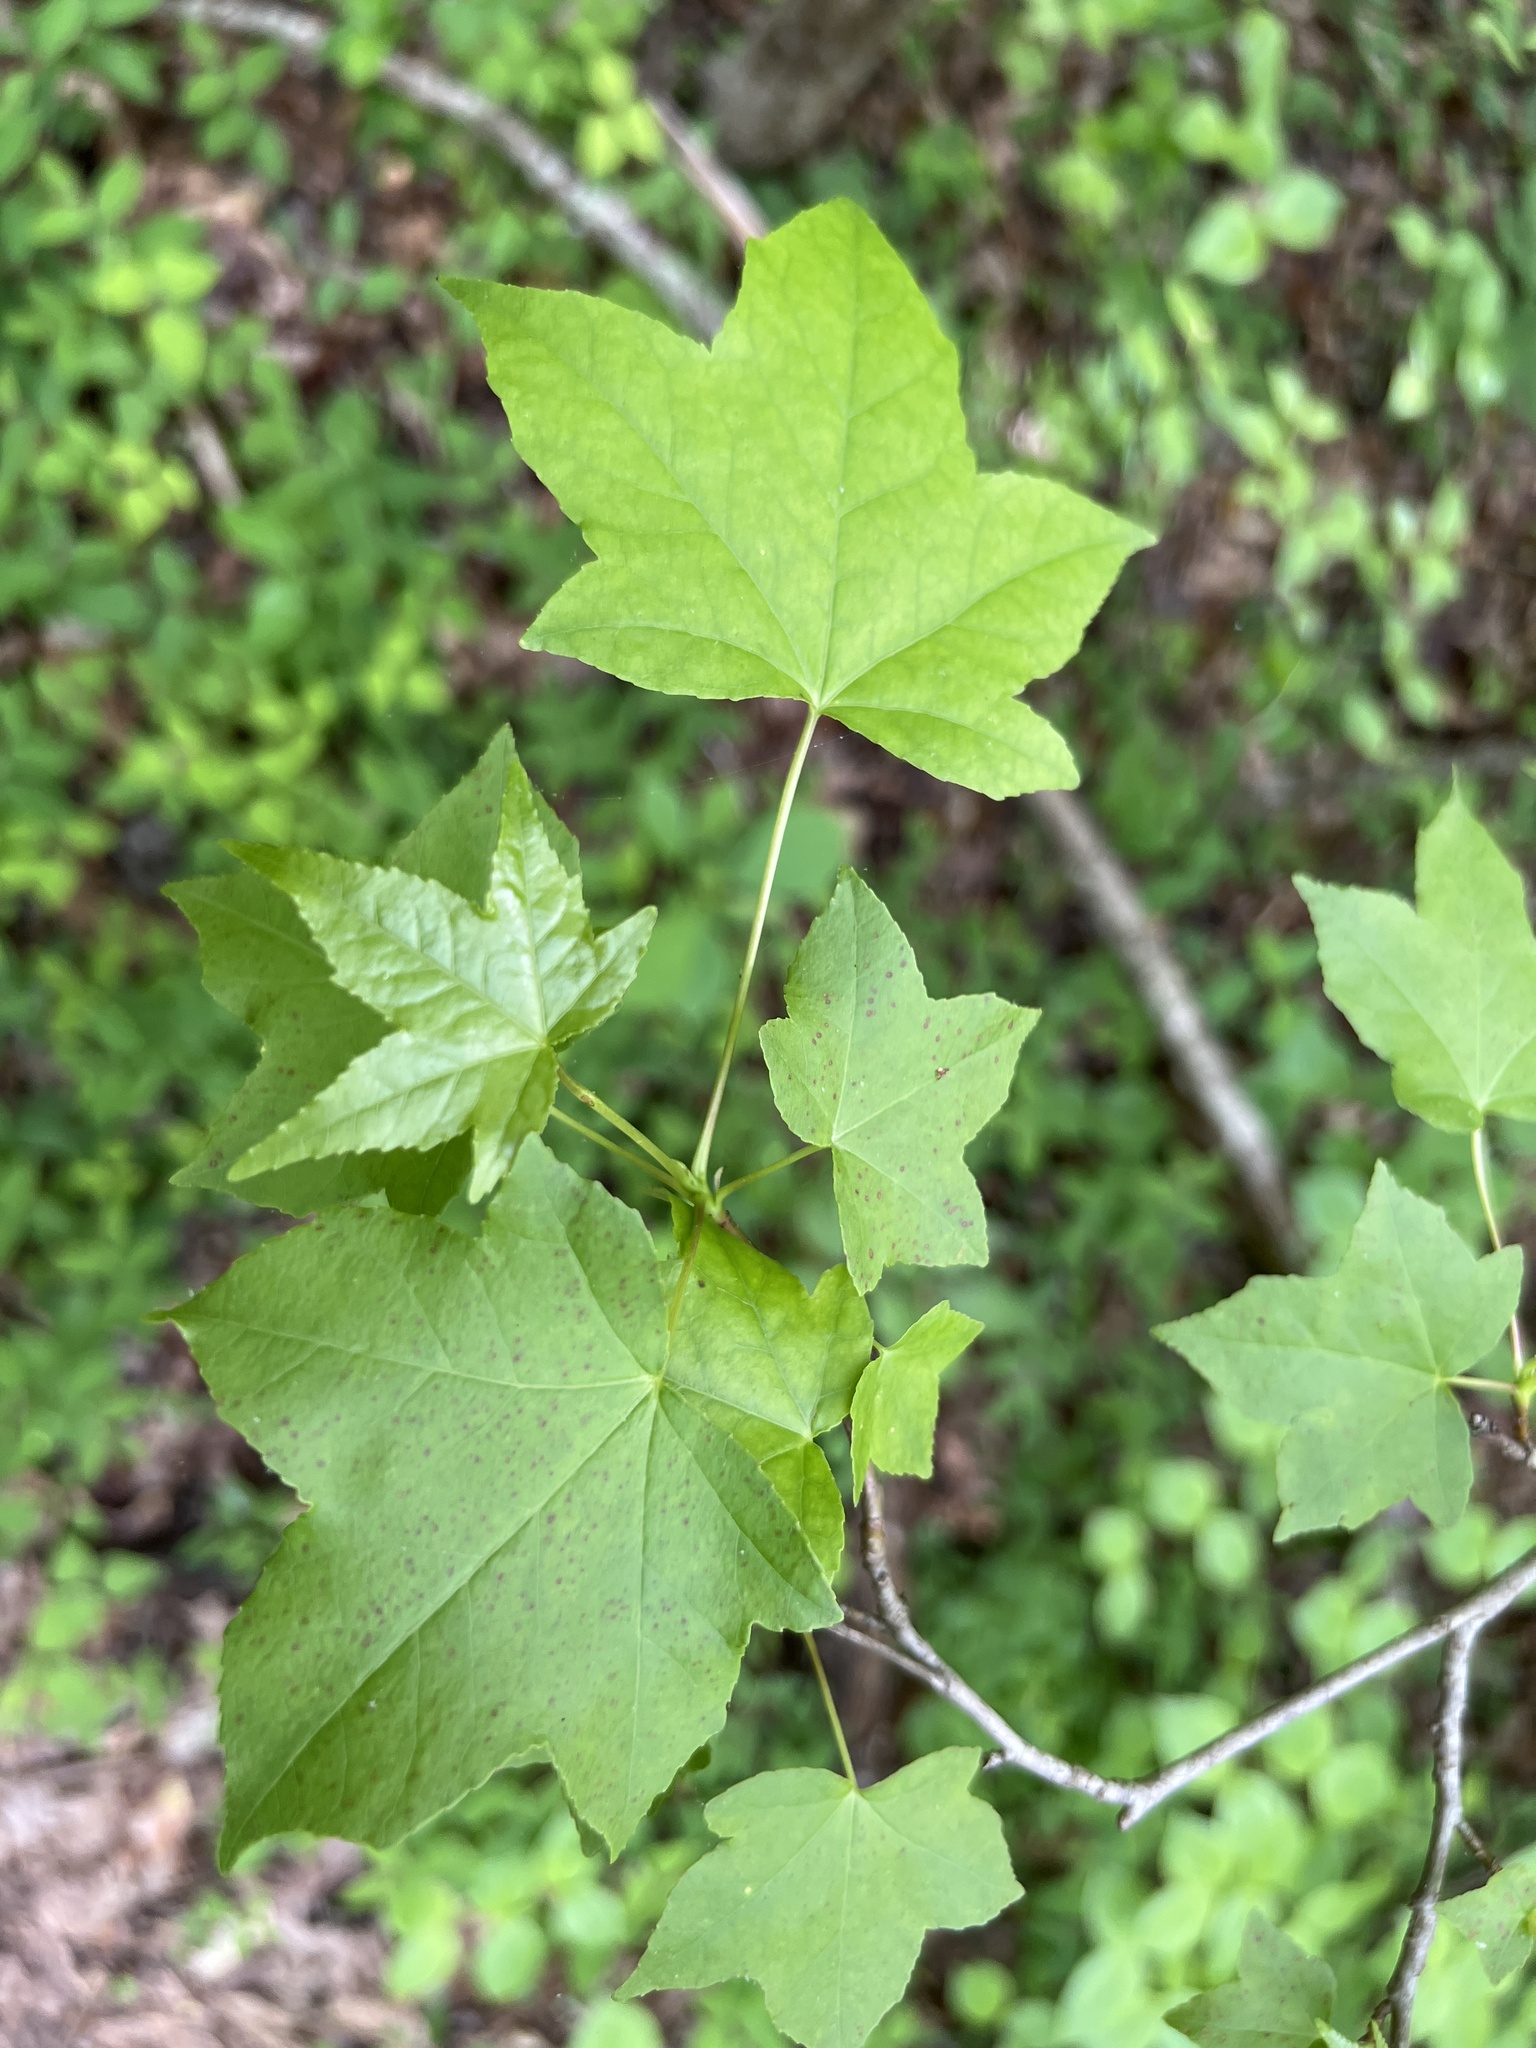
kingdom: Plantae
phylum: Tracheophyta
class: Magnoliopsida
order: Saxifragales
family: Altingiaceae
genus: Liquidambar
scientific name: Liquidambar styraciflua
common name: Sweet gum
